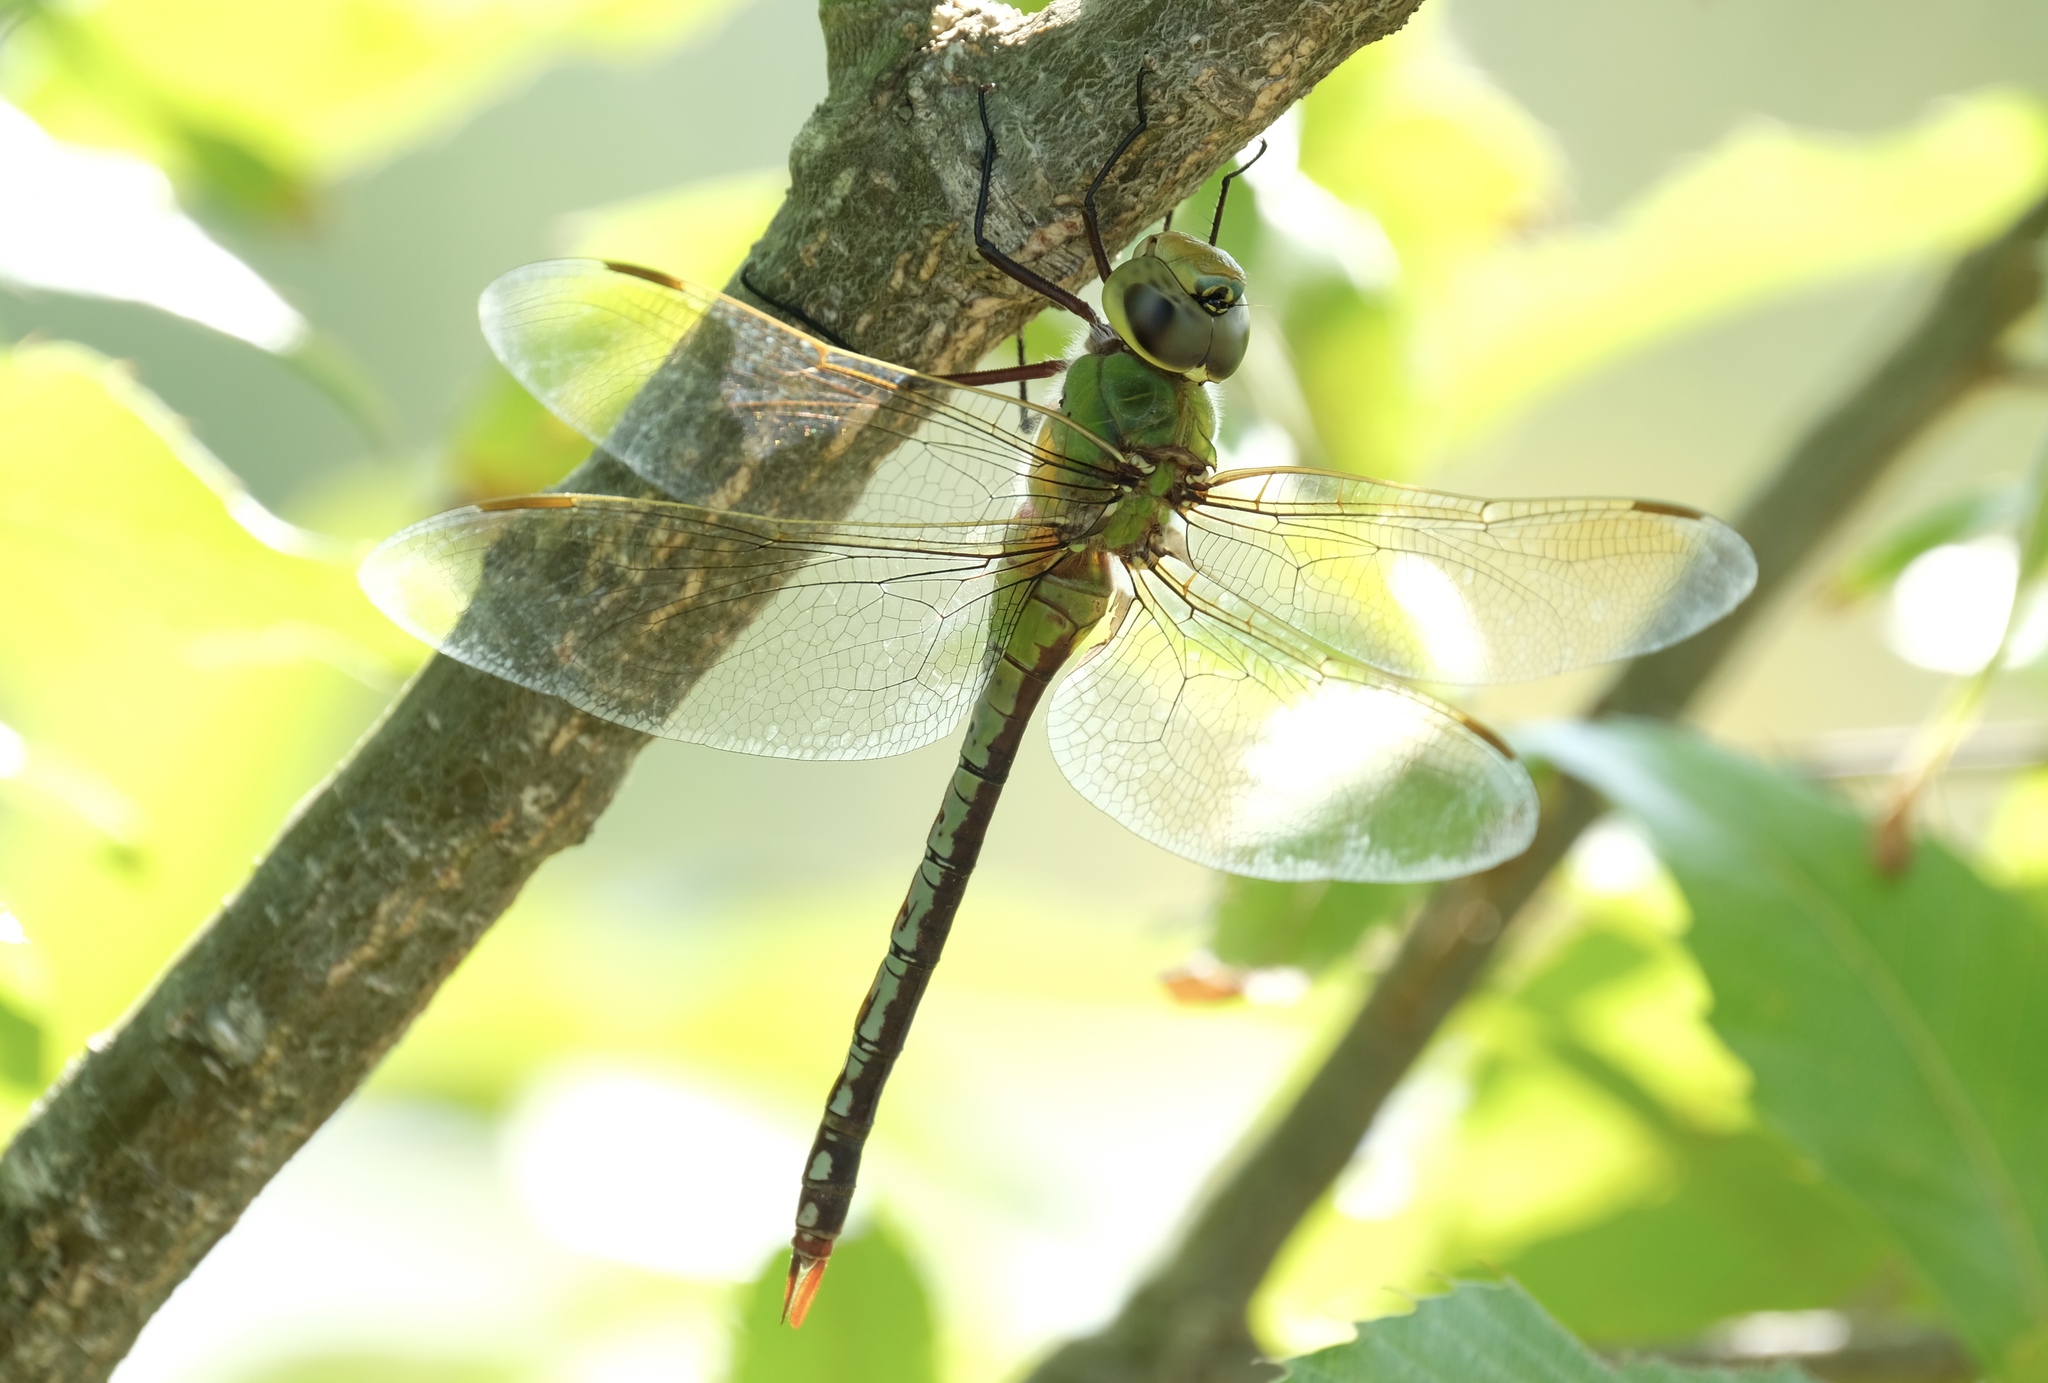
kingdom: Animalia
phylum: Arthropoda
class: Insecta
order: Odonata
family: Aeshnidae
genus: Anax
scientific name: Anax junius
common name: Common green darner
